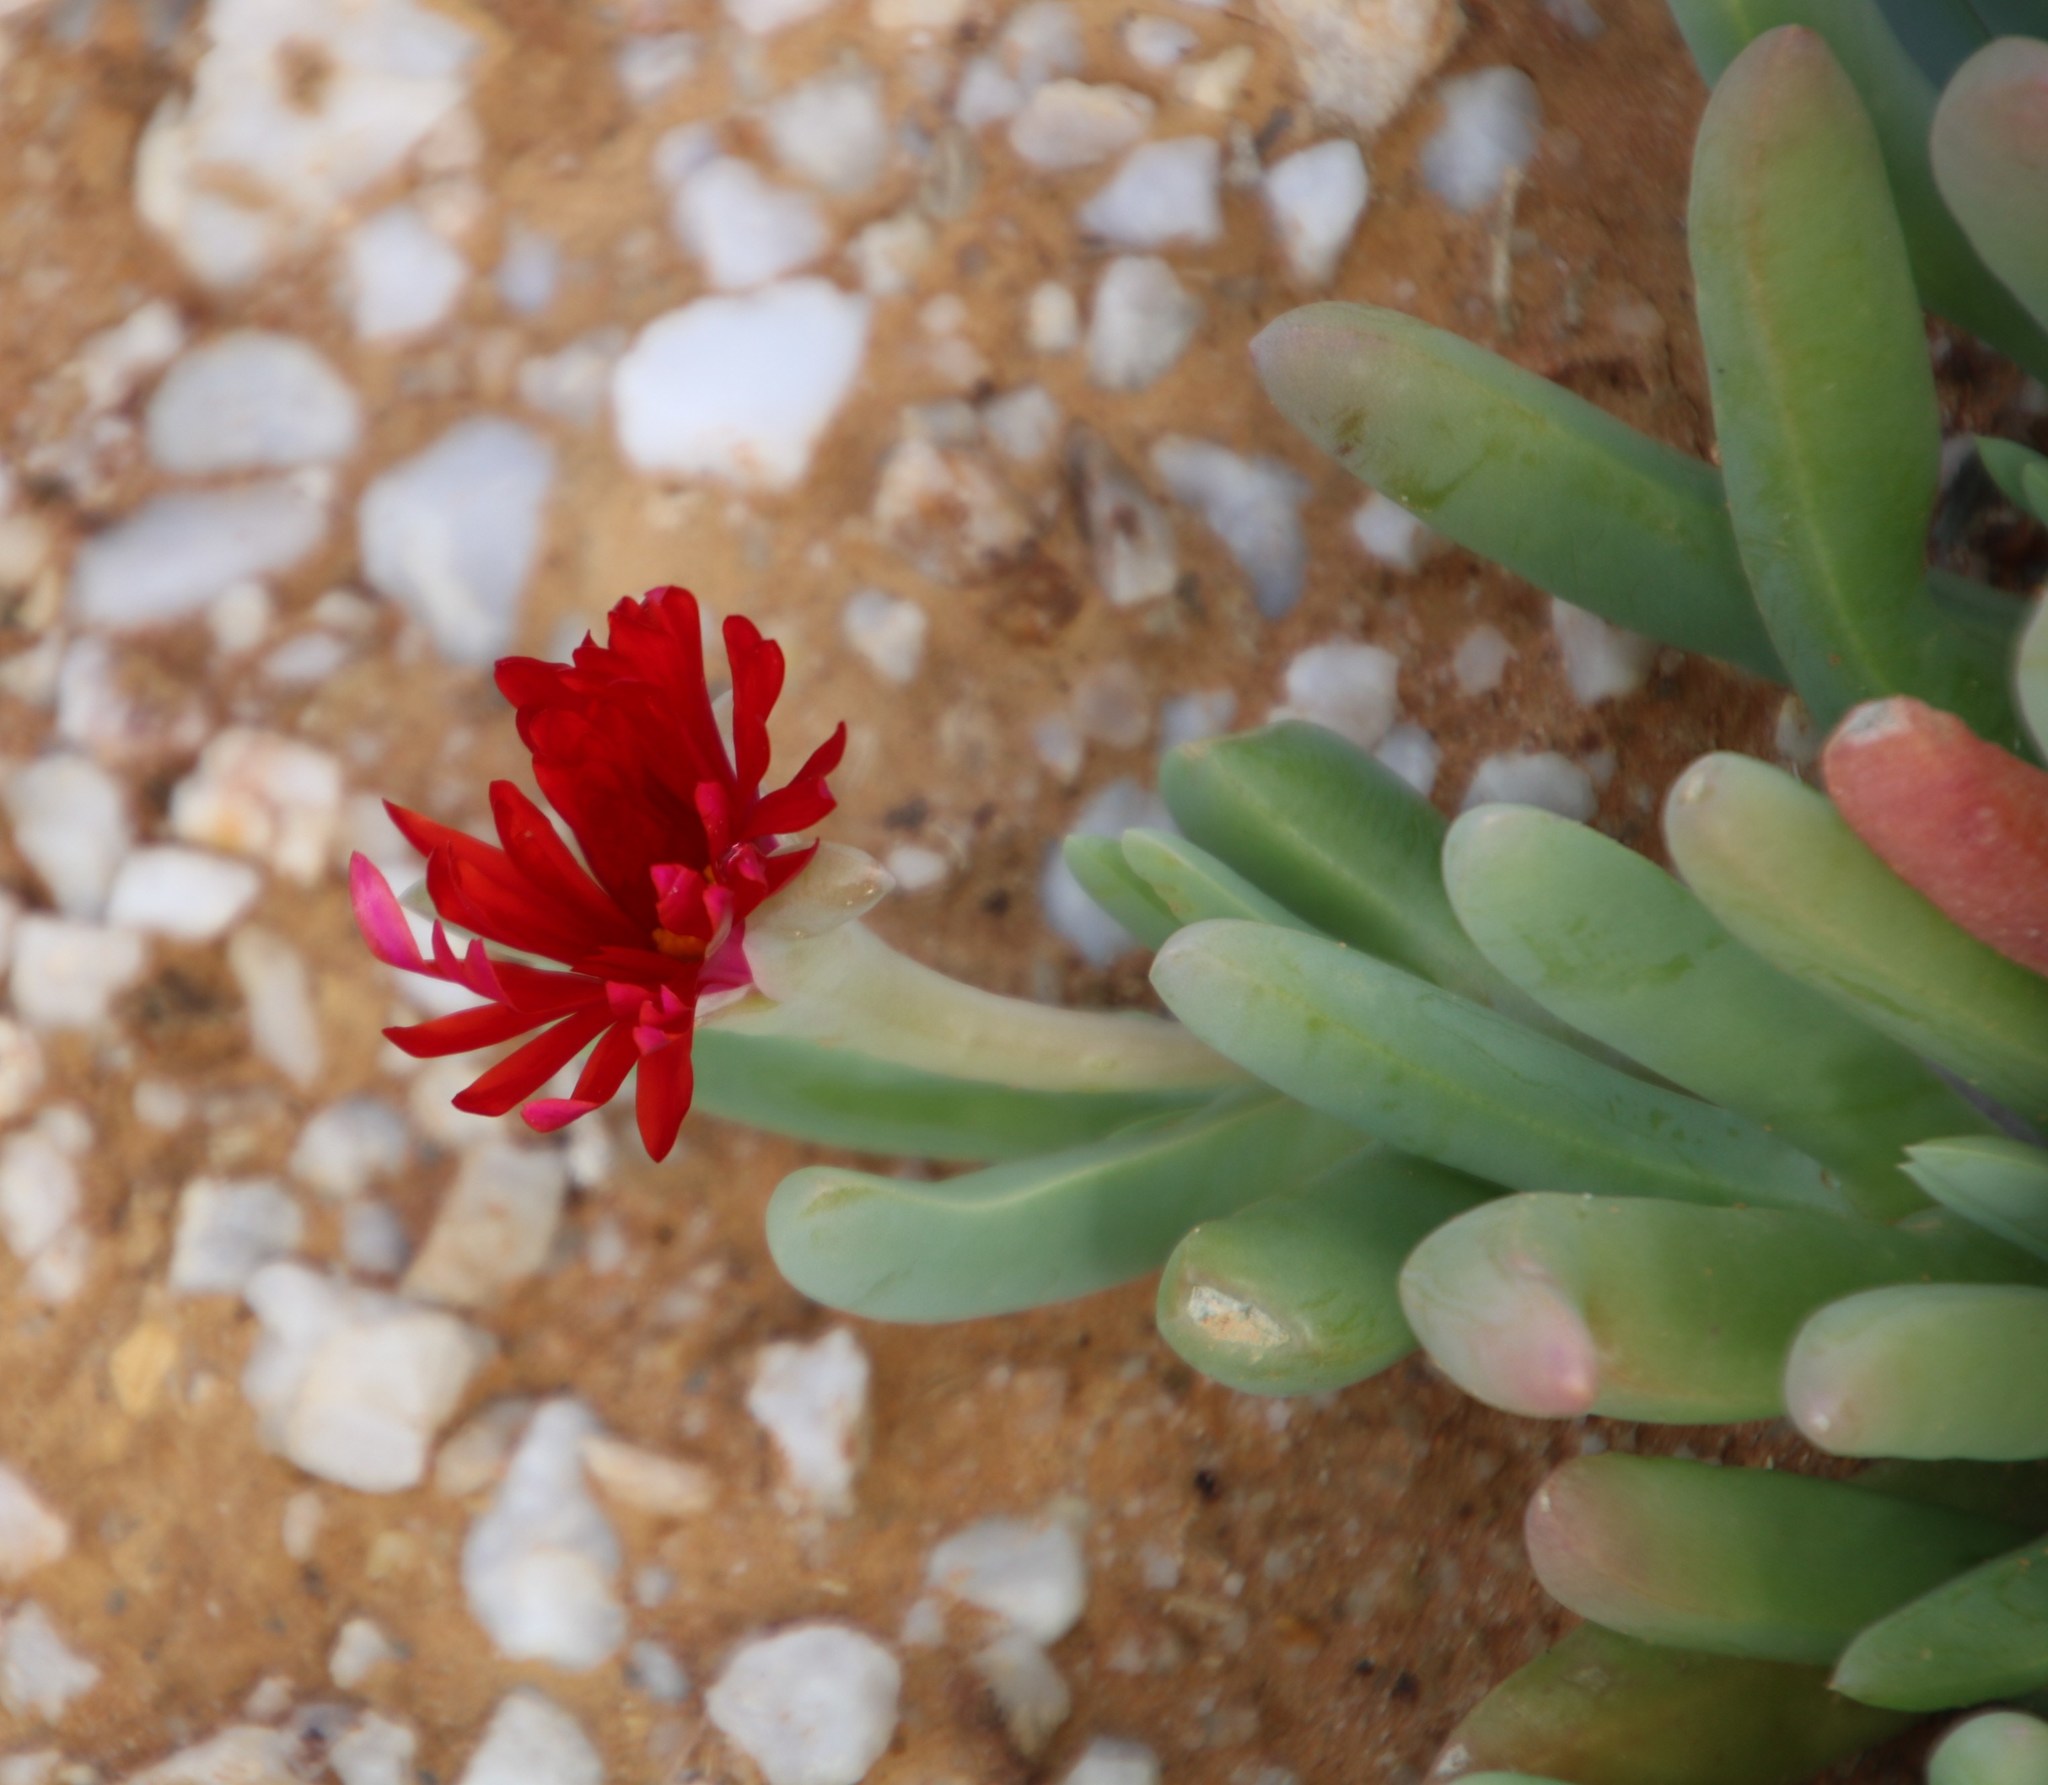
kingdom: Plantae
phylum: Tracheophyta
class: Magnoliopsida
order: Caryophyllales
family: Aizoaceae
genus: Malephora
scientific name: Malephora purpureocrocea
